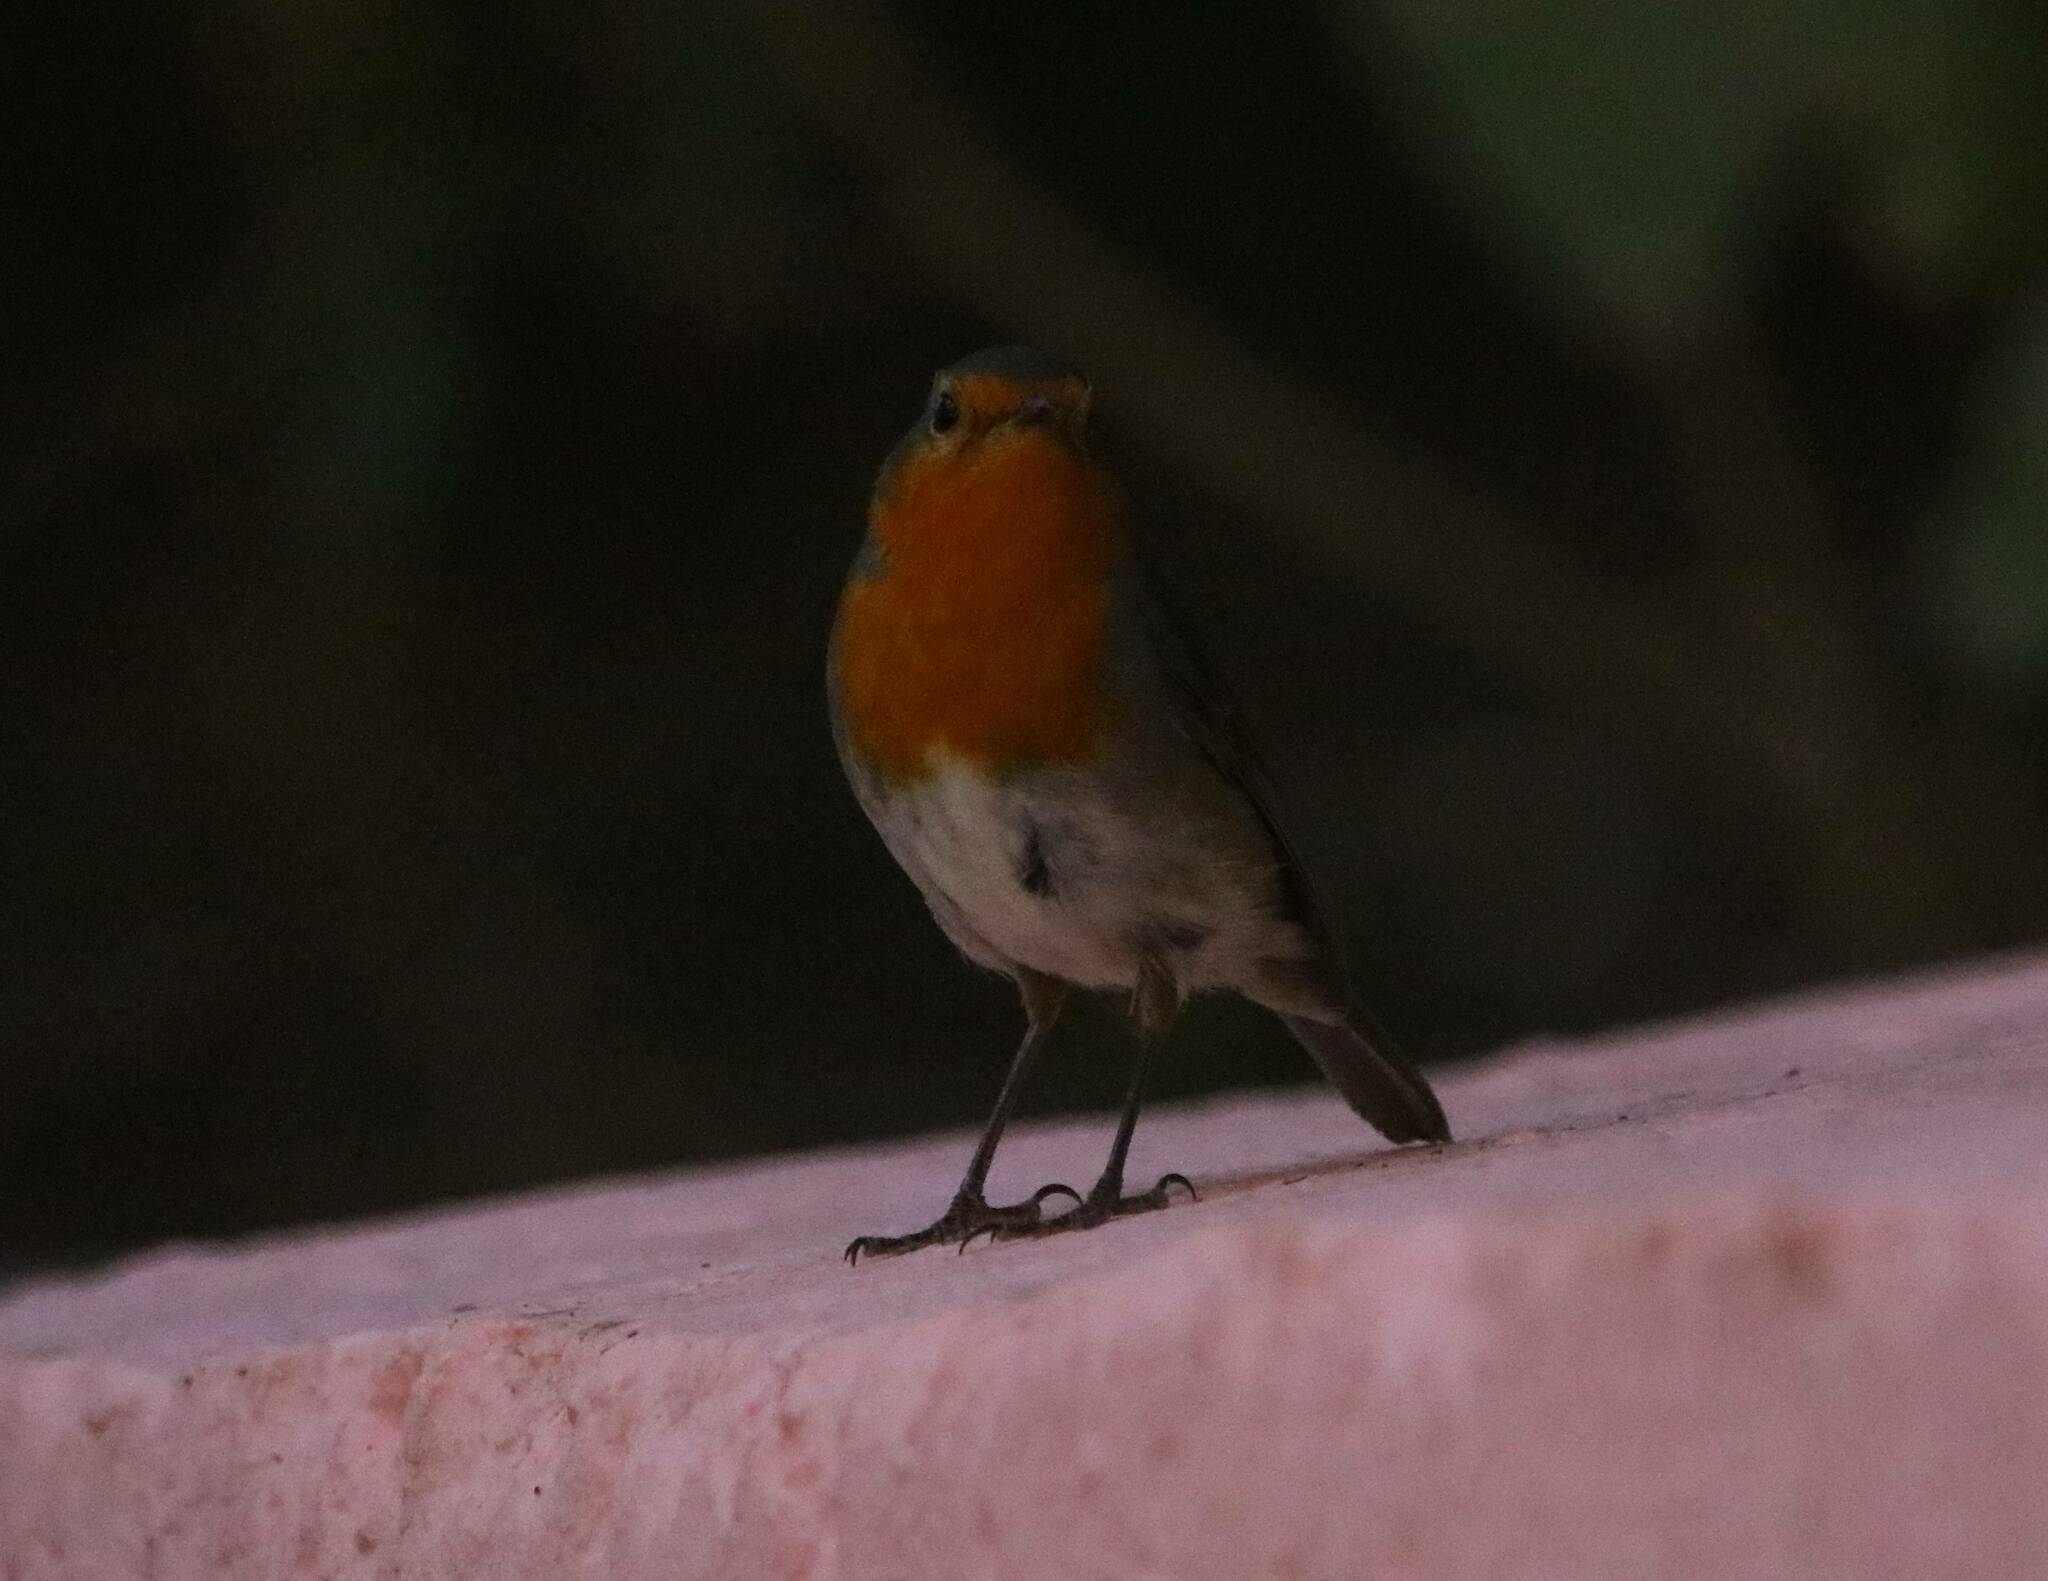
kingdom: Animalia
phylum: Chordata
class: Aves
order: Passeriformes
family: Muscicapidae
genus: Erithacus
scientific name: Erithacus rubecula
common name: European robin
